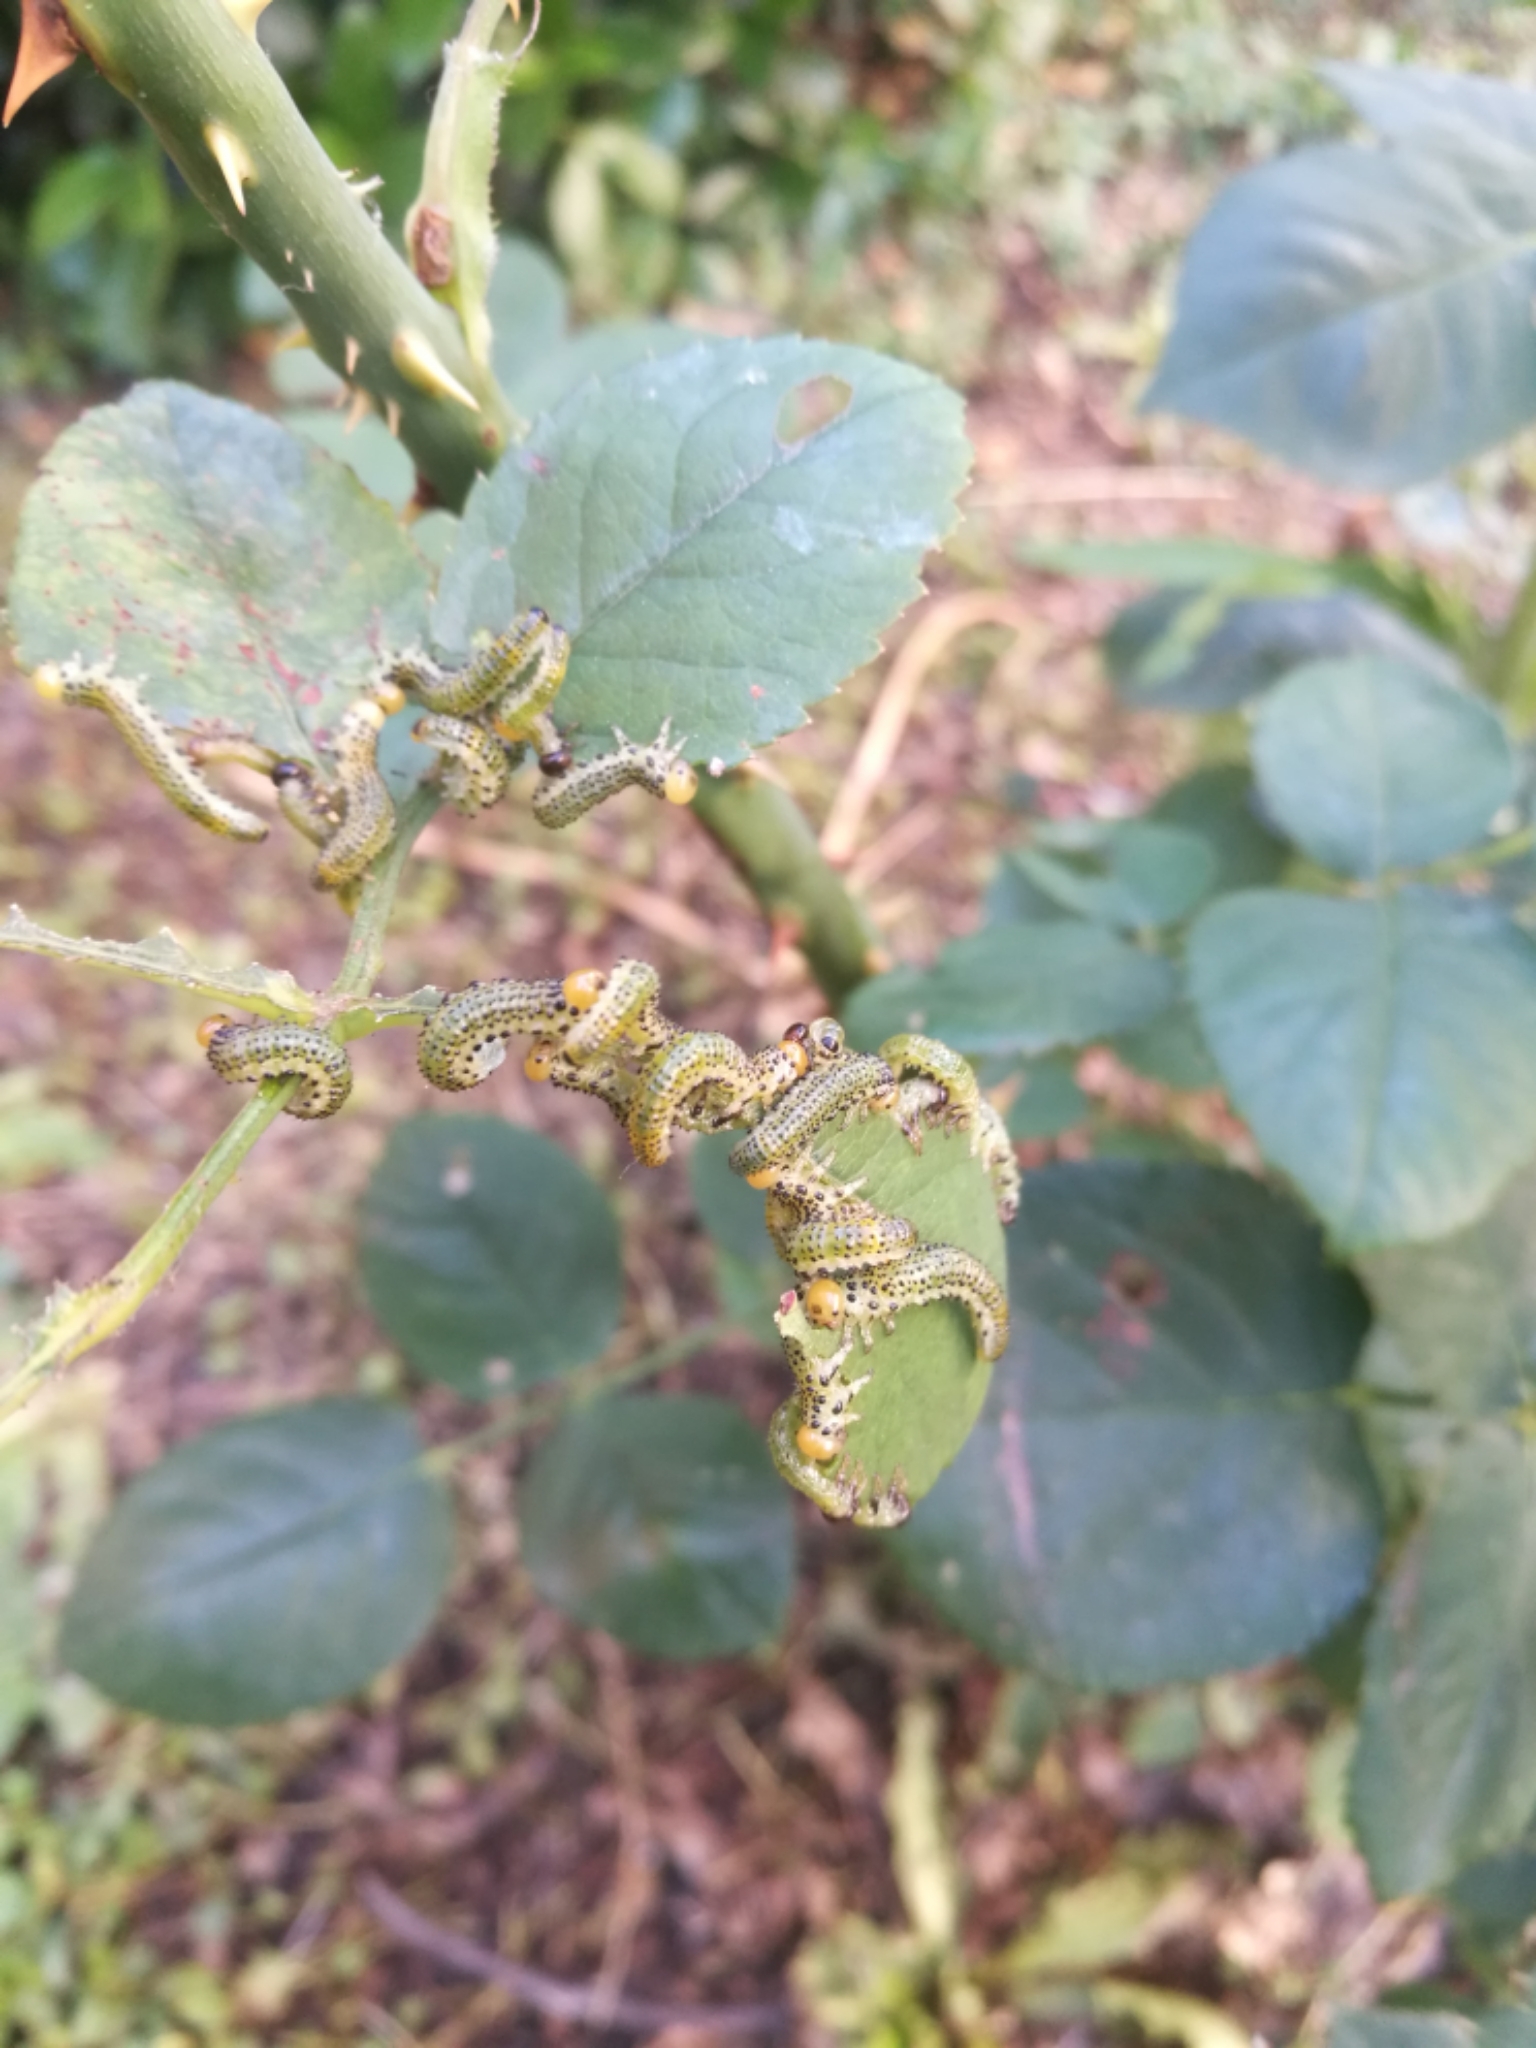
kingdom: Animalia
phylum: Arthropoda
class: Insecta
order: Hymenoptera
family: Argidae
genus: Arge
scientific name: Arge pagana
